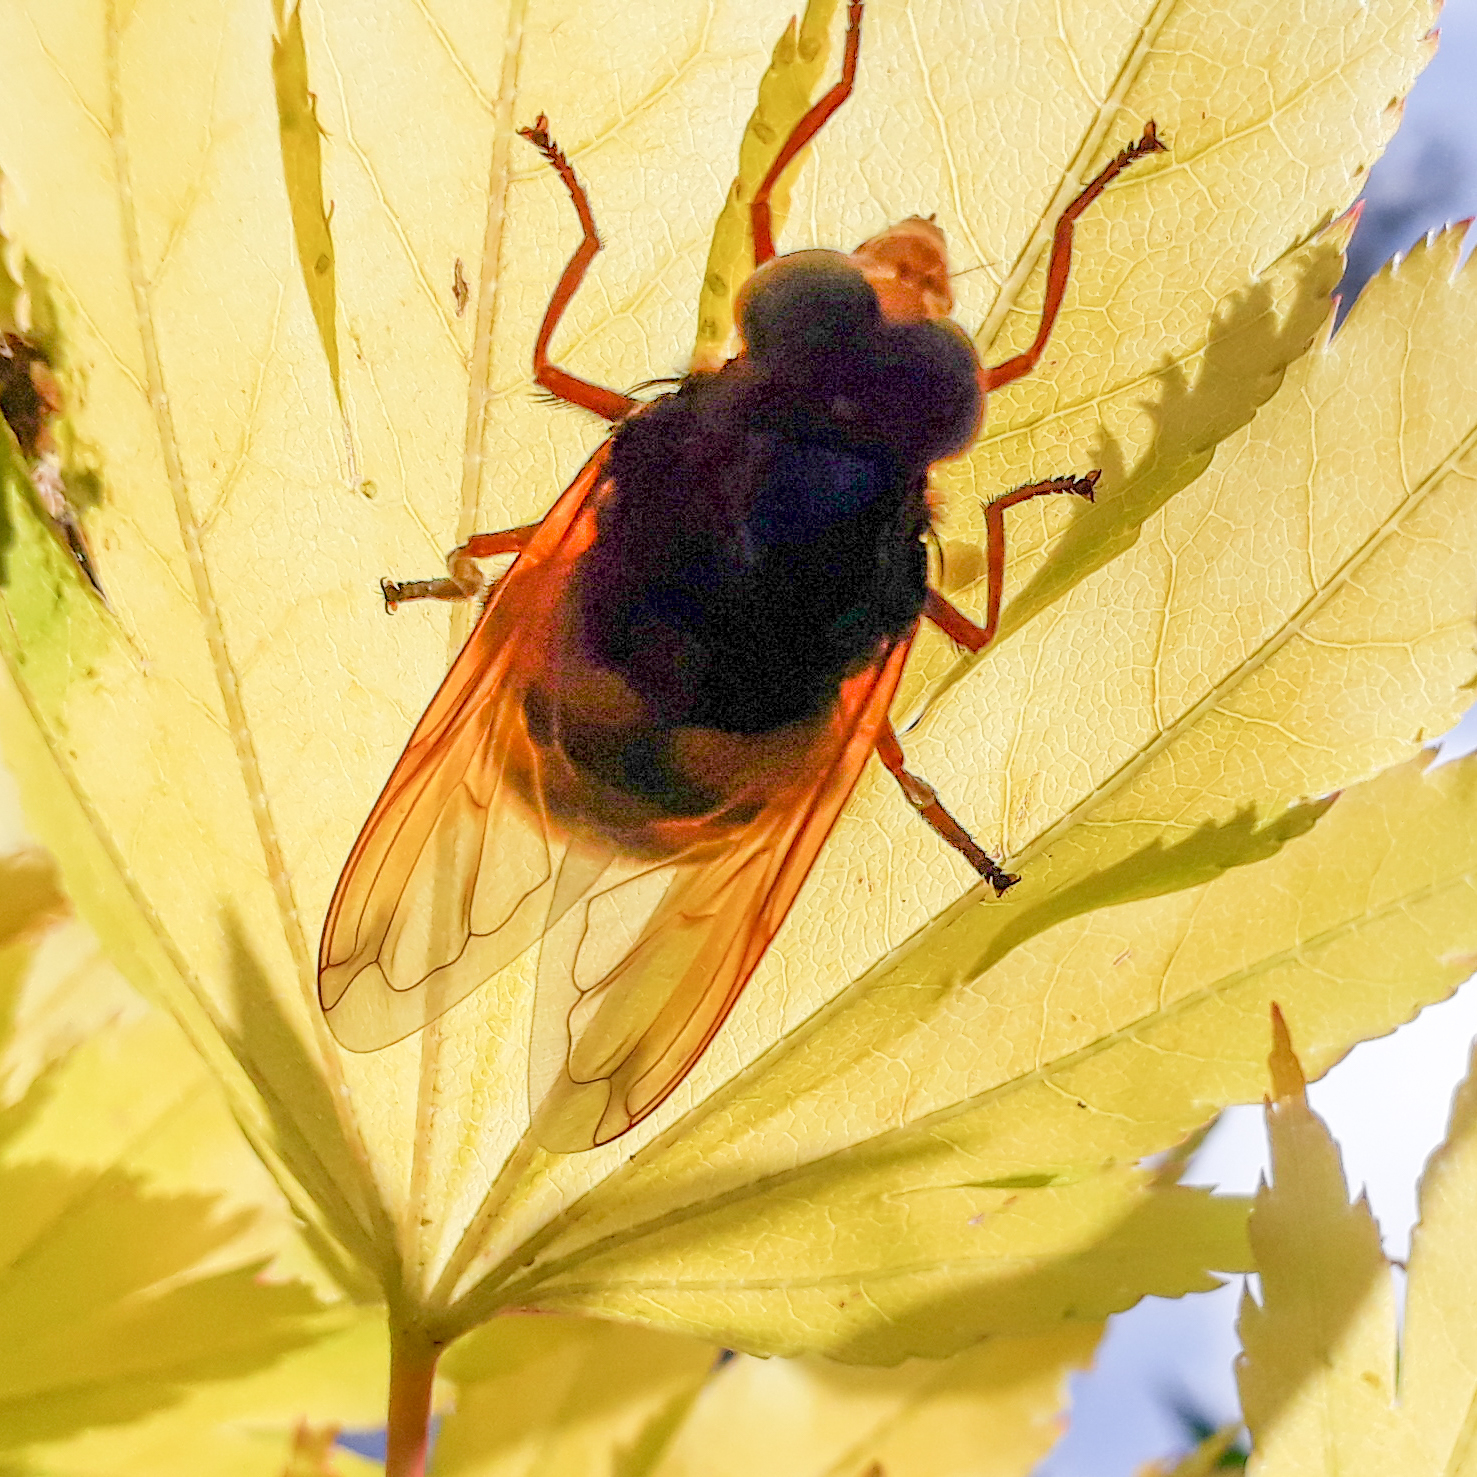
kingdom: Animalia
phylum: Arthropoda
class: Insecta
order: Diptera
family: Syrphidae
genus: Volucella
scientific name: Volucella zonaria
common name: Hornet hoverfly
